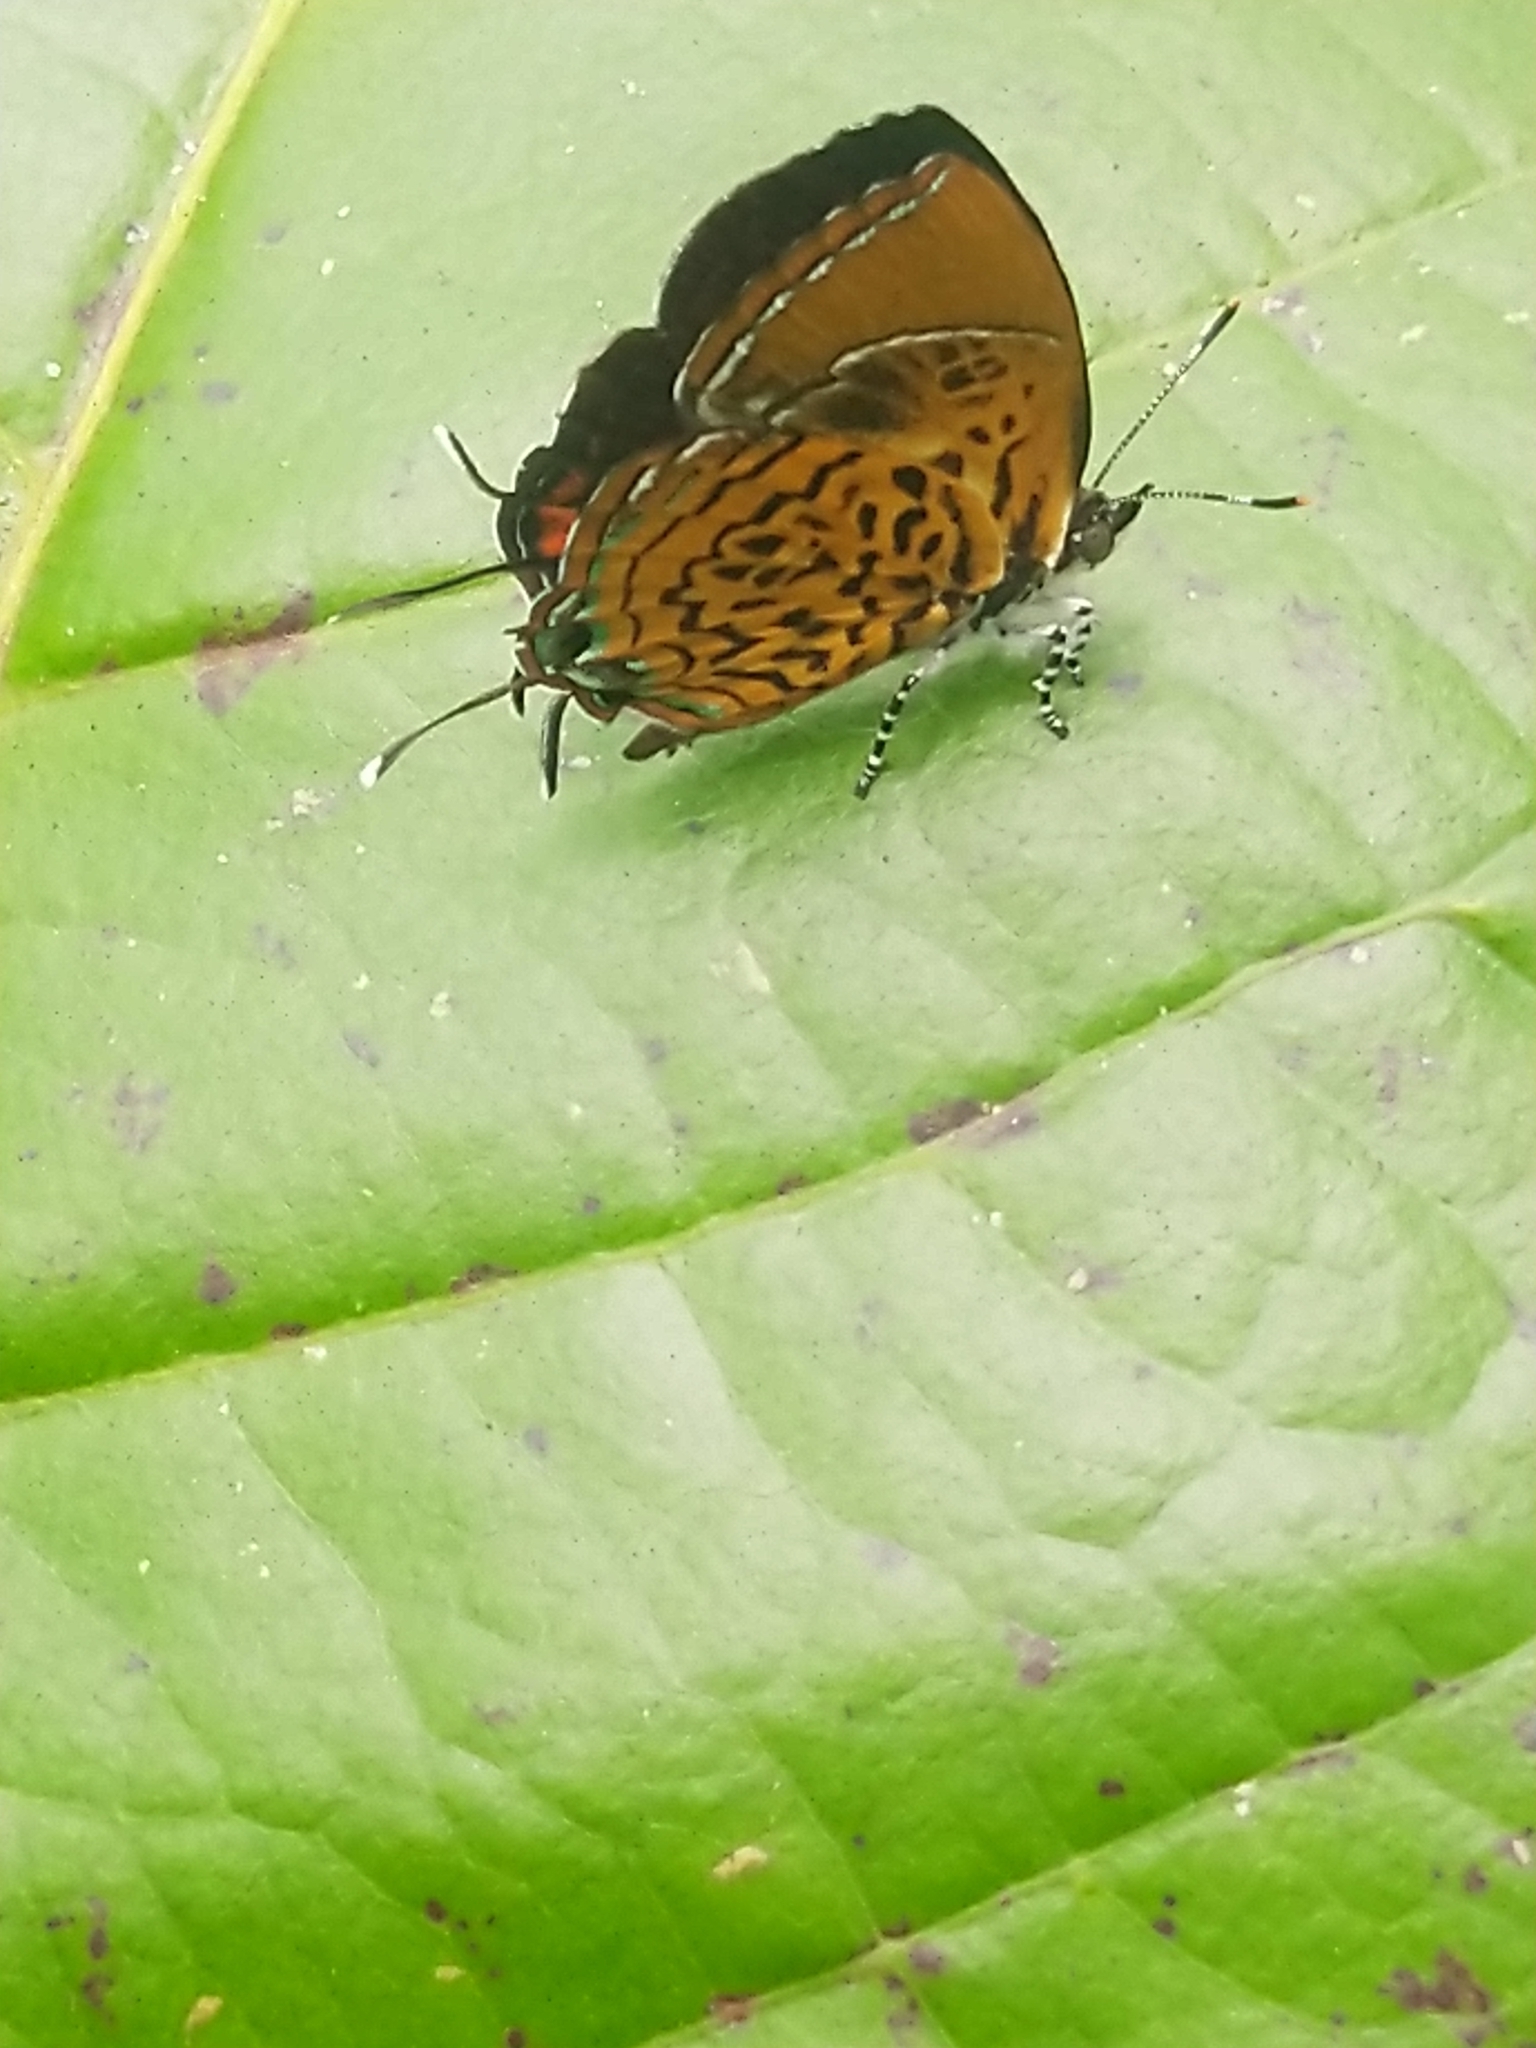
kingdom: Animalia
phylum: Arthropoda
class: Insecta
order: Lepidoptera
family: Lycaenidae
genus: Rathinda
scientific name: Rathinda amor
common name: Monkey puzzle
